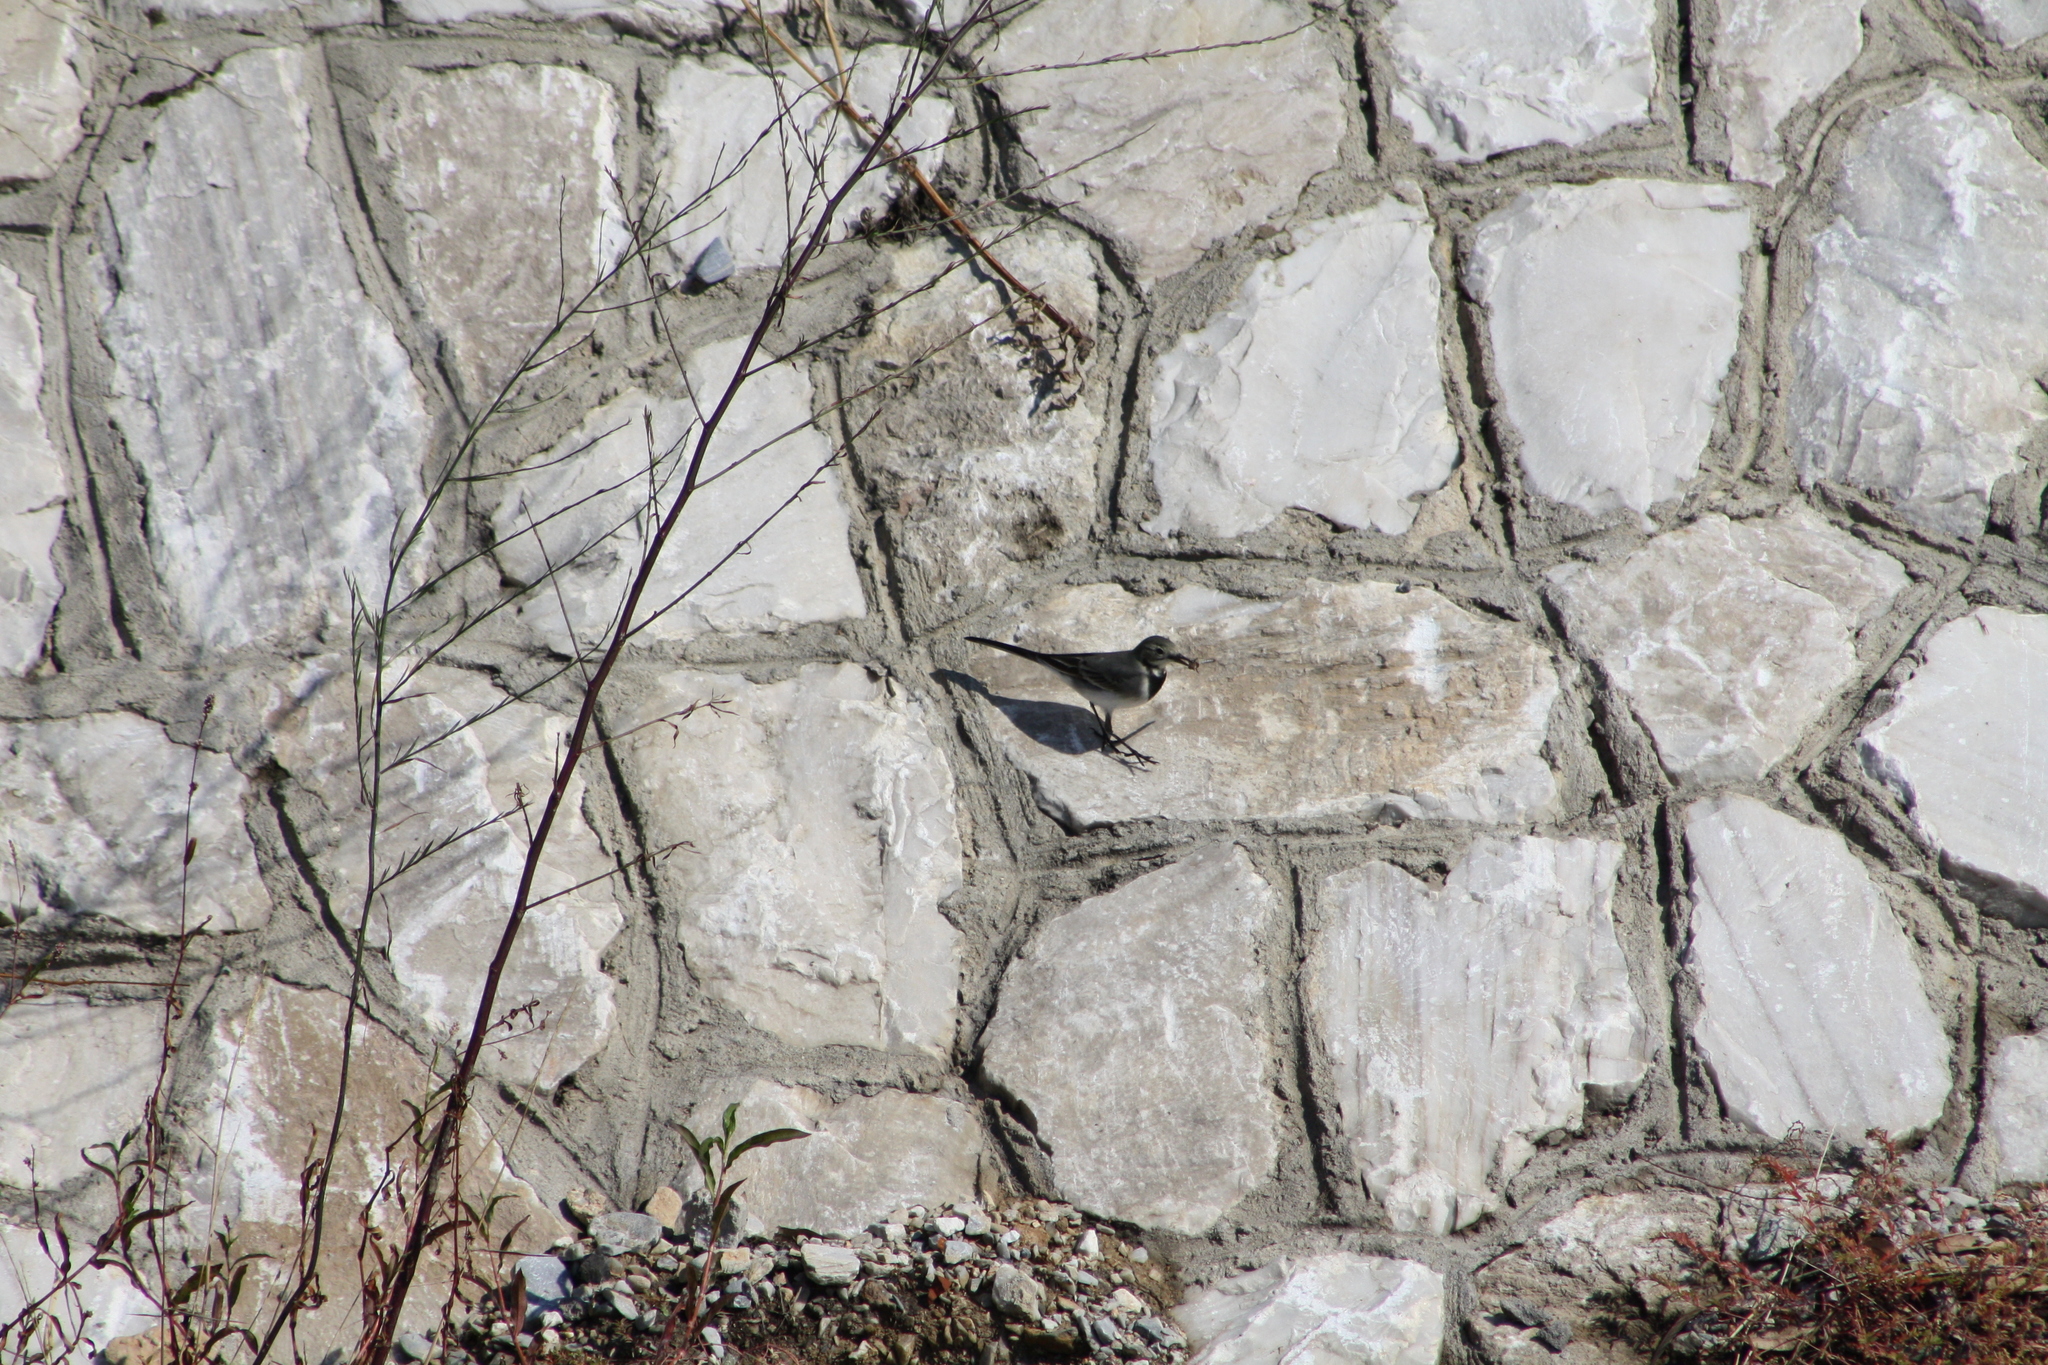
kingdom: Animalia
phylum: Chordata
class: Aves
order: Passeriformes
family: Motacillidae
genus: Motacilla
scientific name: Motacilla alba
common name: White wagtail
